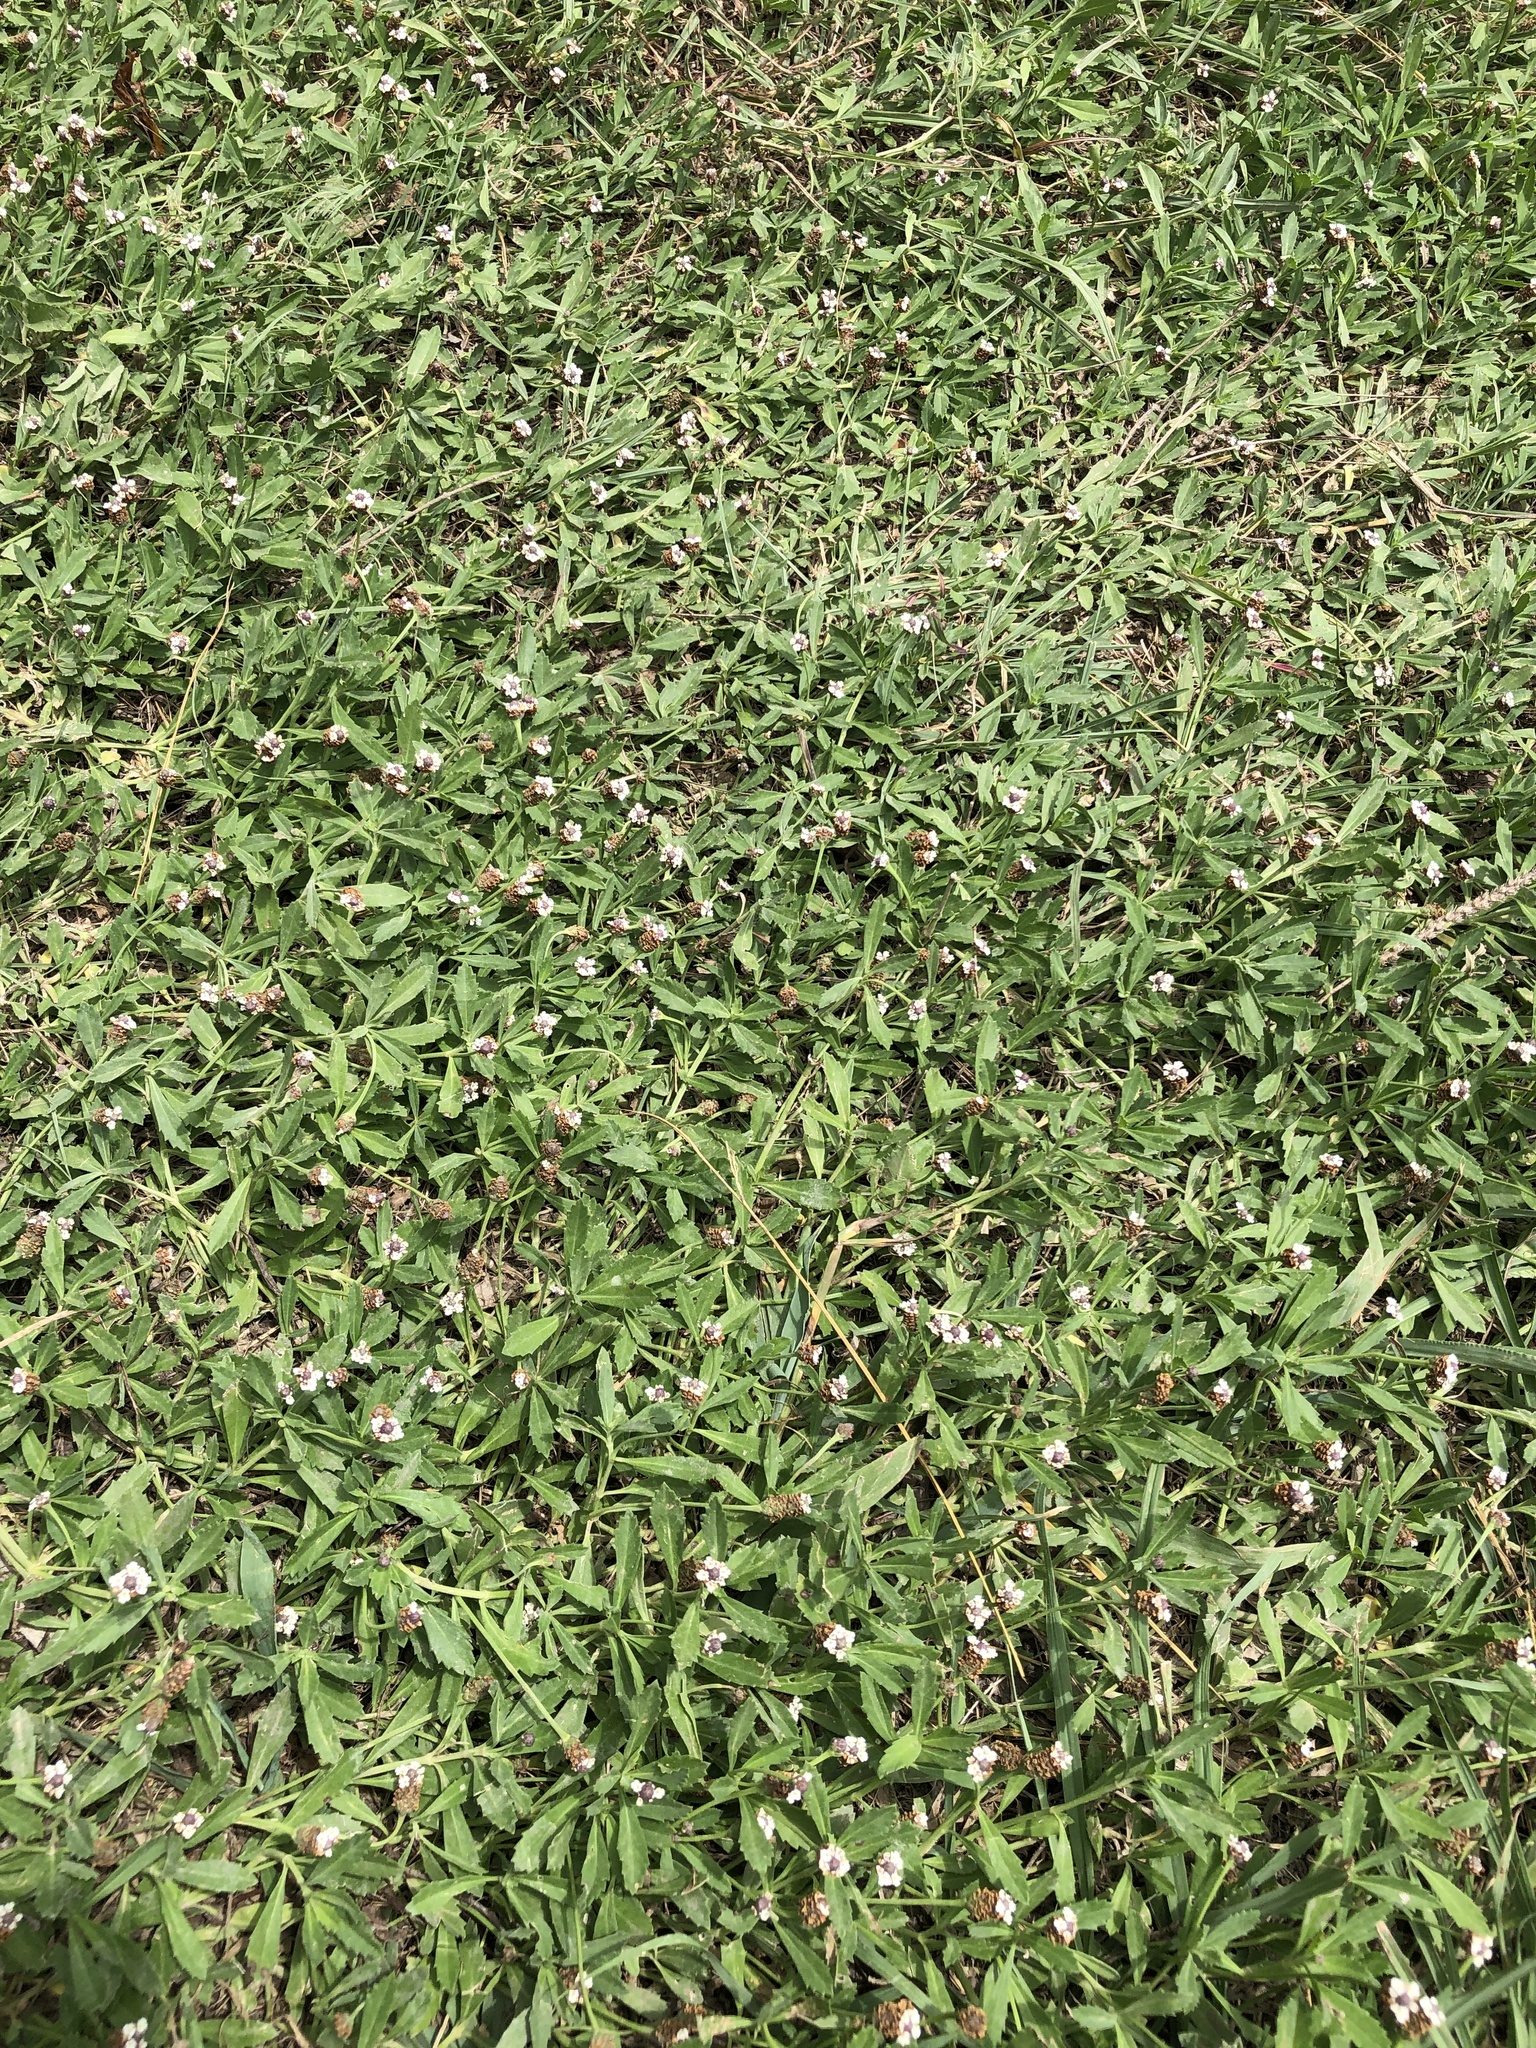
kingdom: Plantae
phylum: Tracheophyta
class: Magnoliopsida
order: Lamiales
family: Verbenaceae
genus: Phyla
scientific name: Phyla nodiflora
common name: Frogfruit
